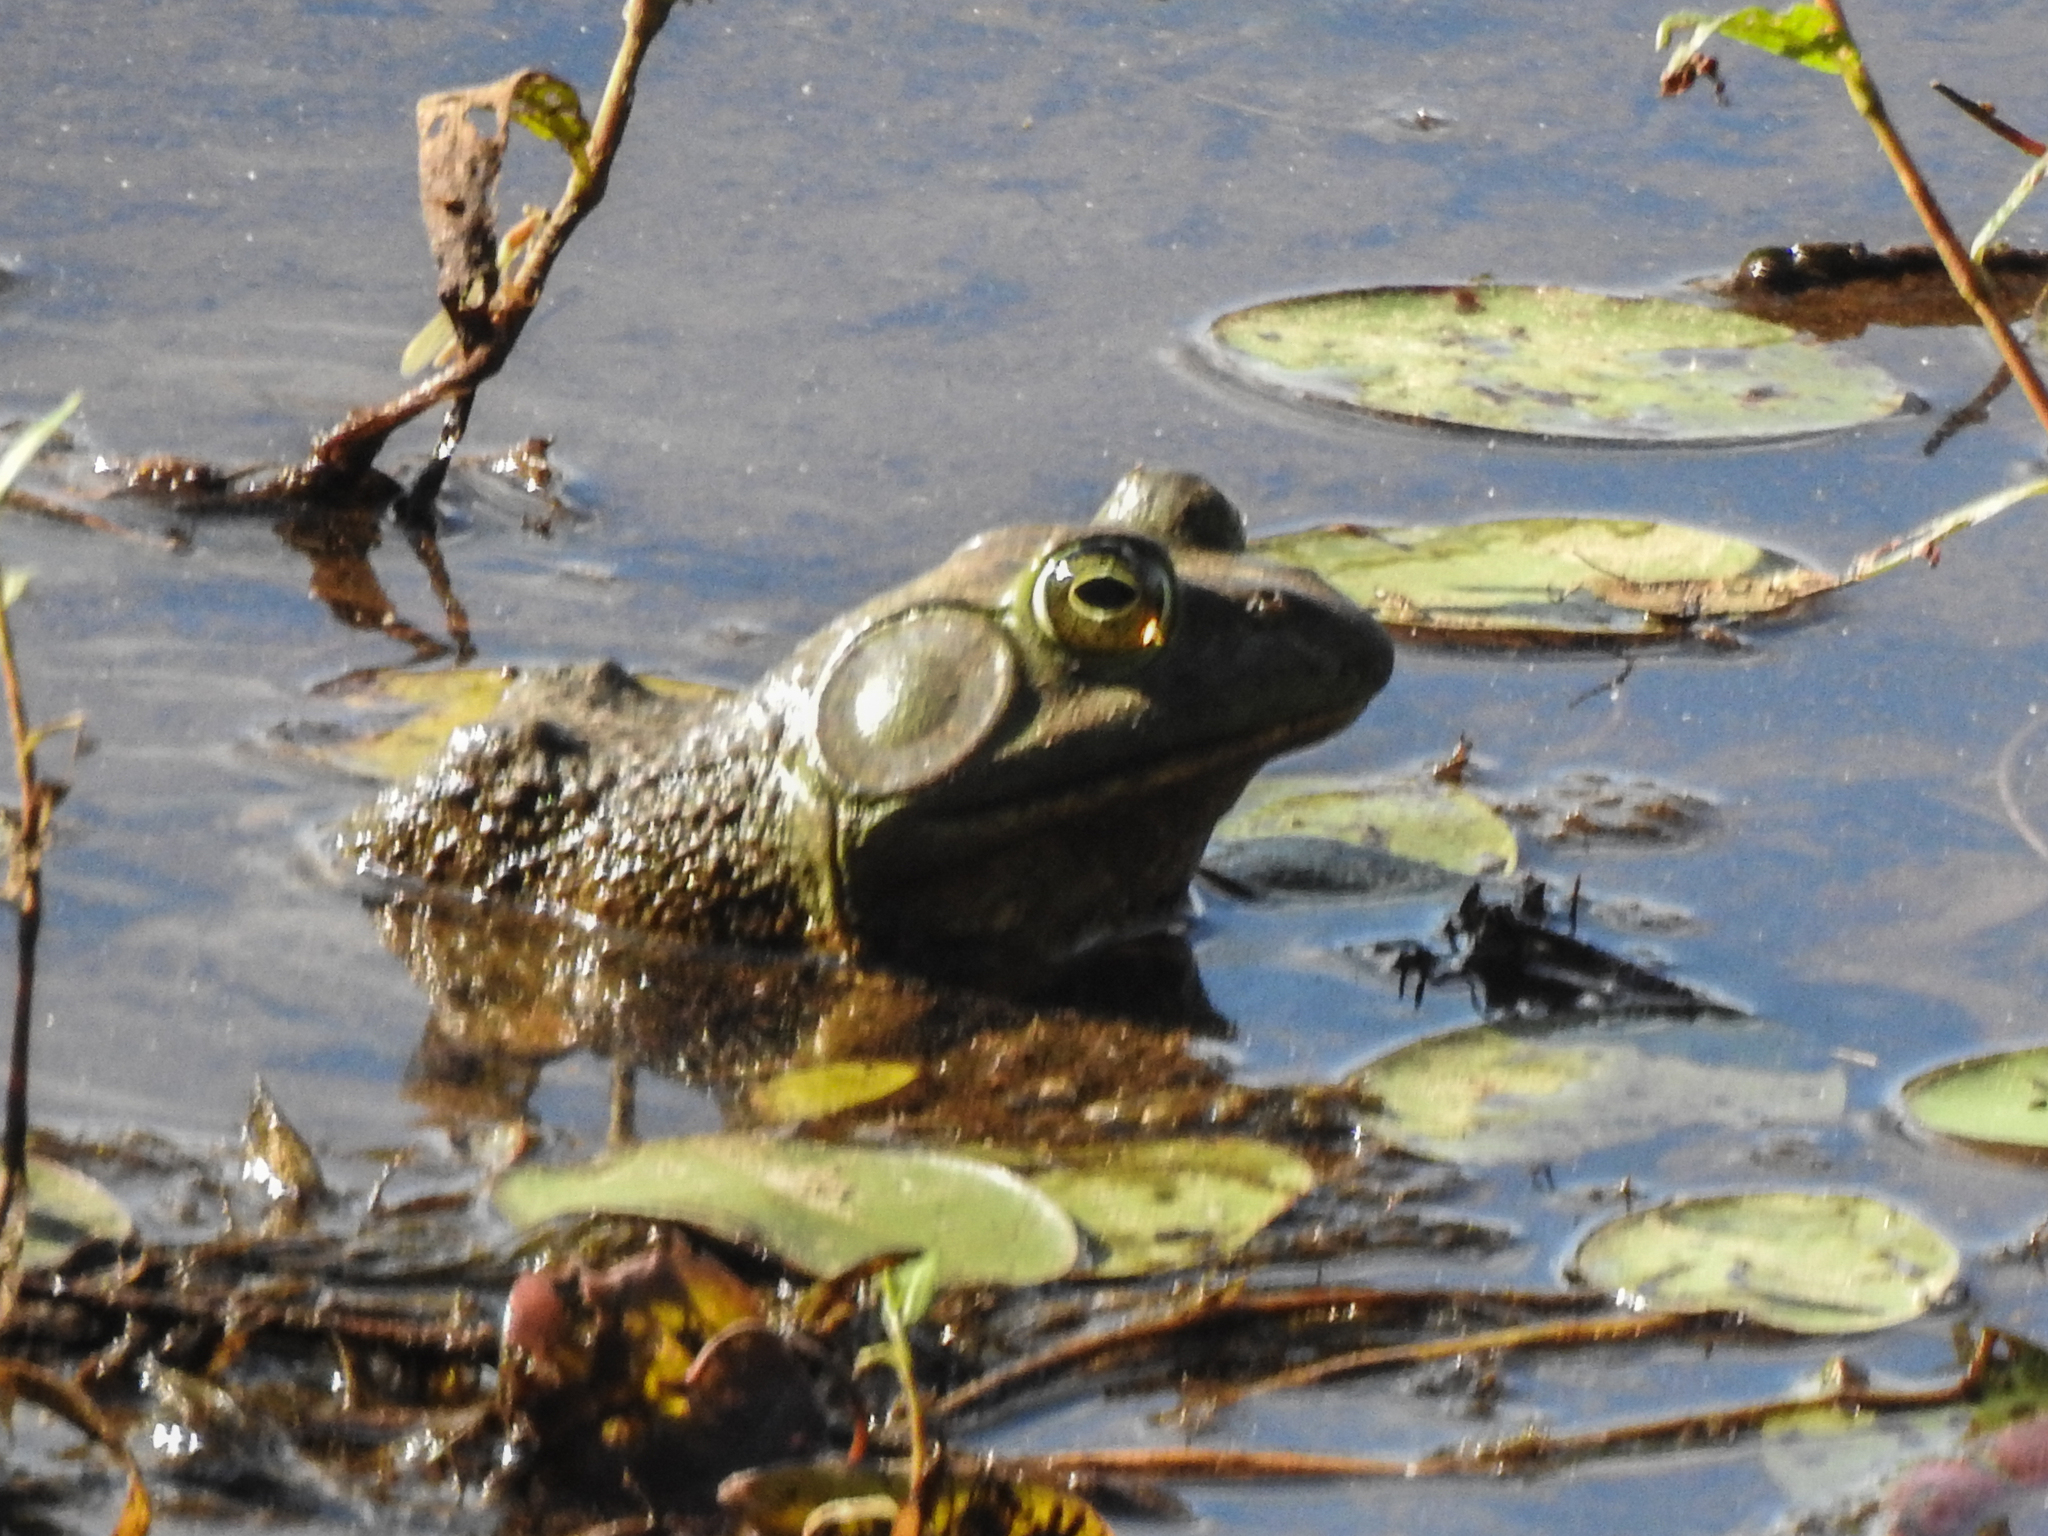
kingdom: Animalia
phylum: Chordata
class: Amphibia
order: Anura
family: Ranidae
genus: Lithobates
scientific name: Lithobates catesbeianus
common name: American bullfrog
